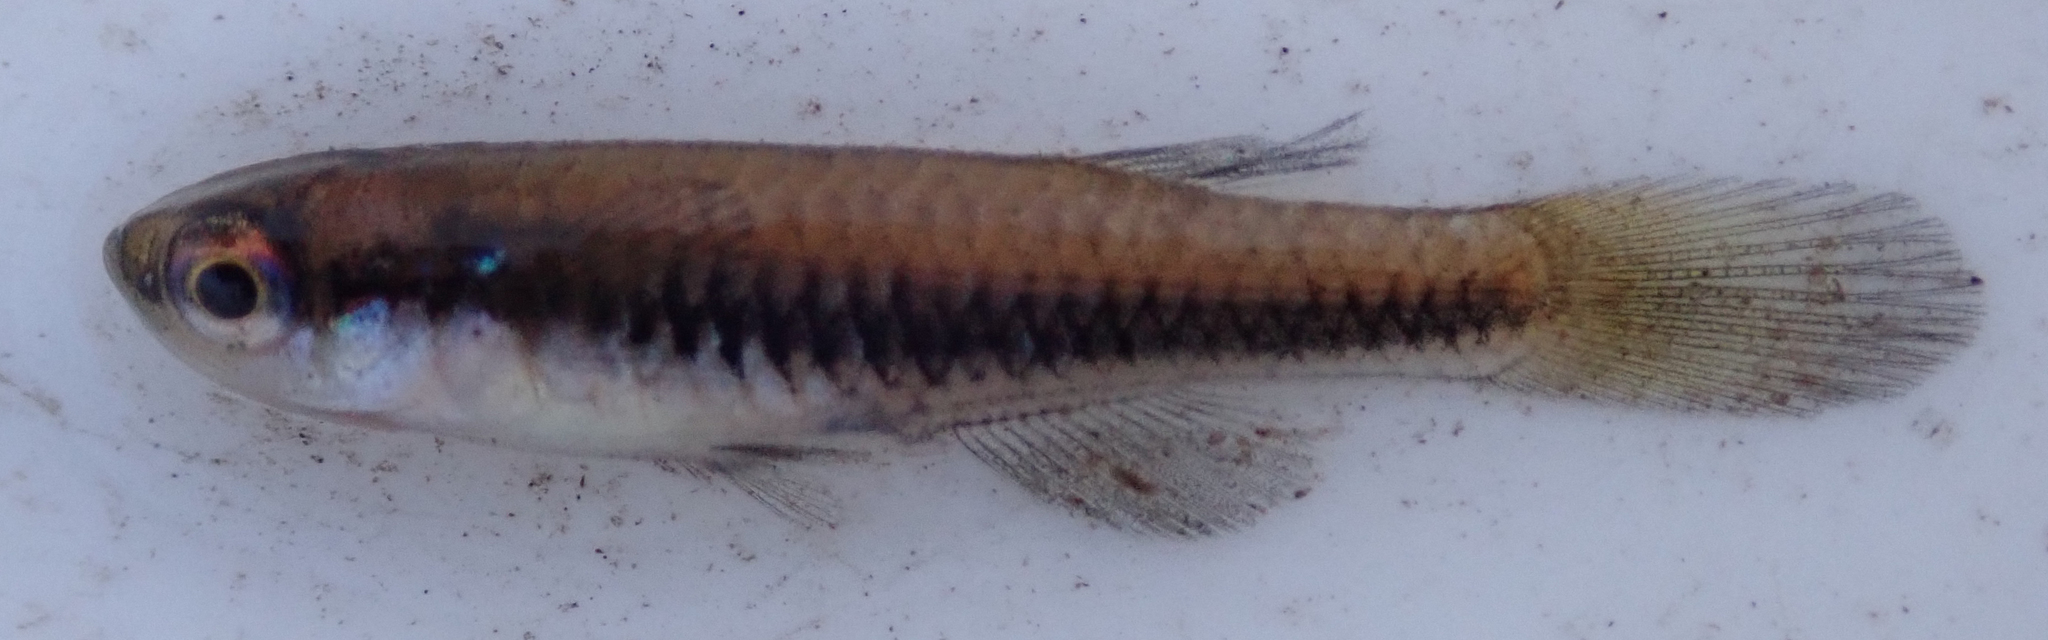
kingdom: Animalia
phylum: Chordata
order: Cyprinodontiformes
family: Poeciliidae
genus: Lacustricola
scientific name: Lacustricola katangae
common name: Striped topminnow
